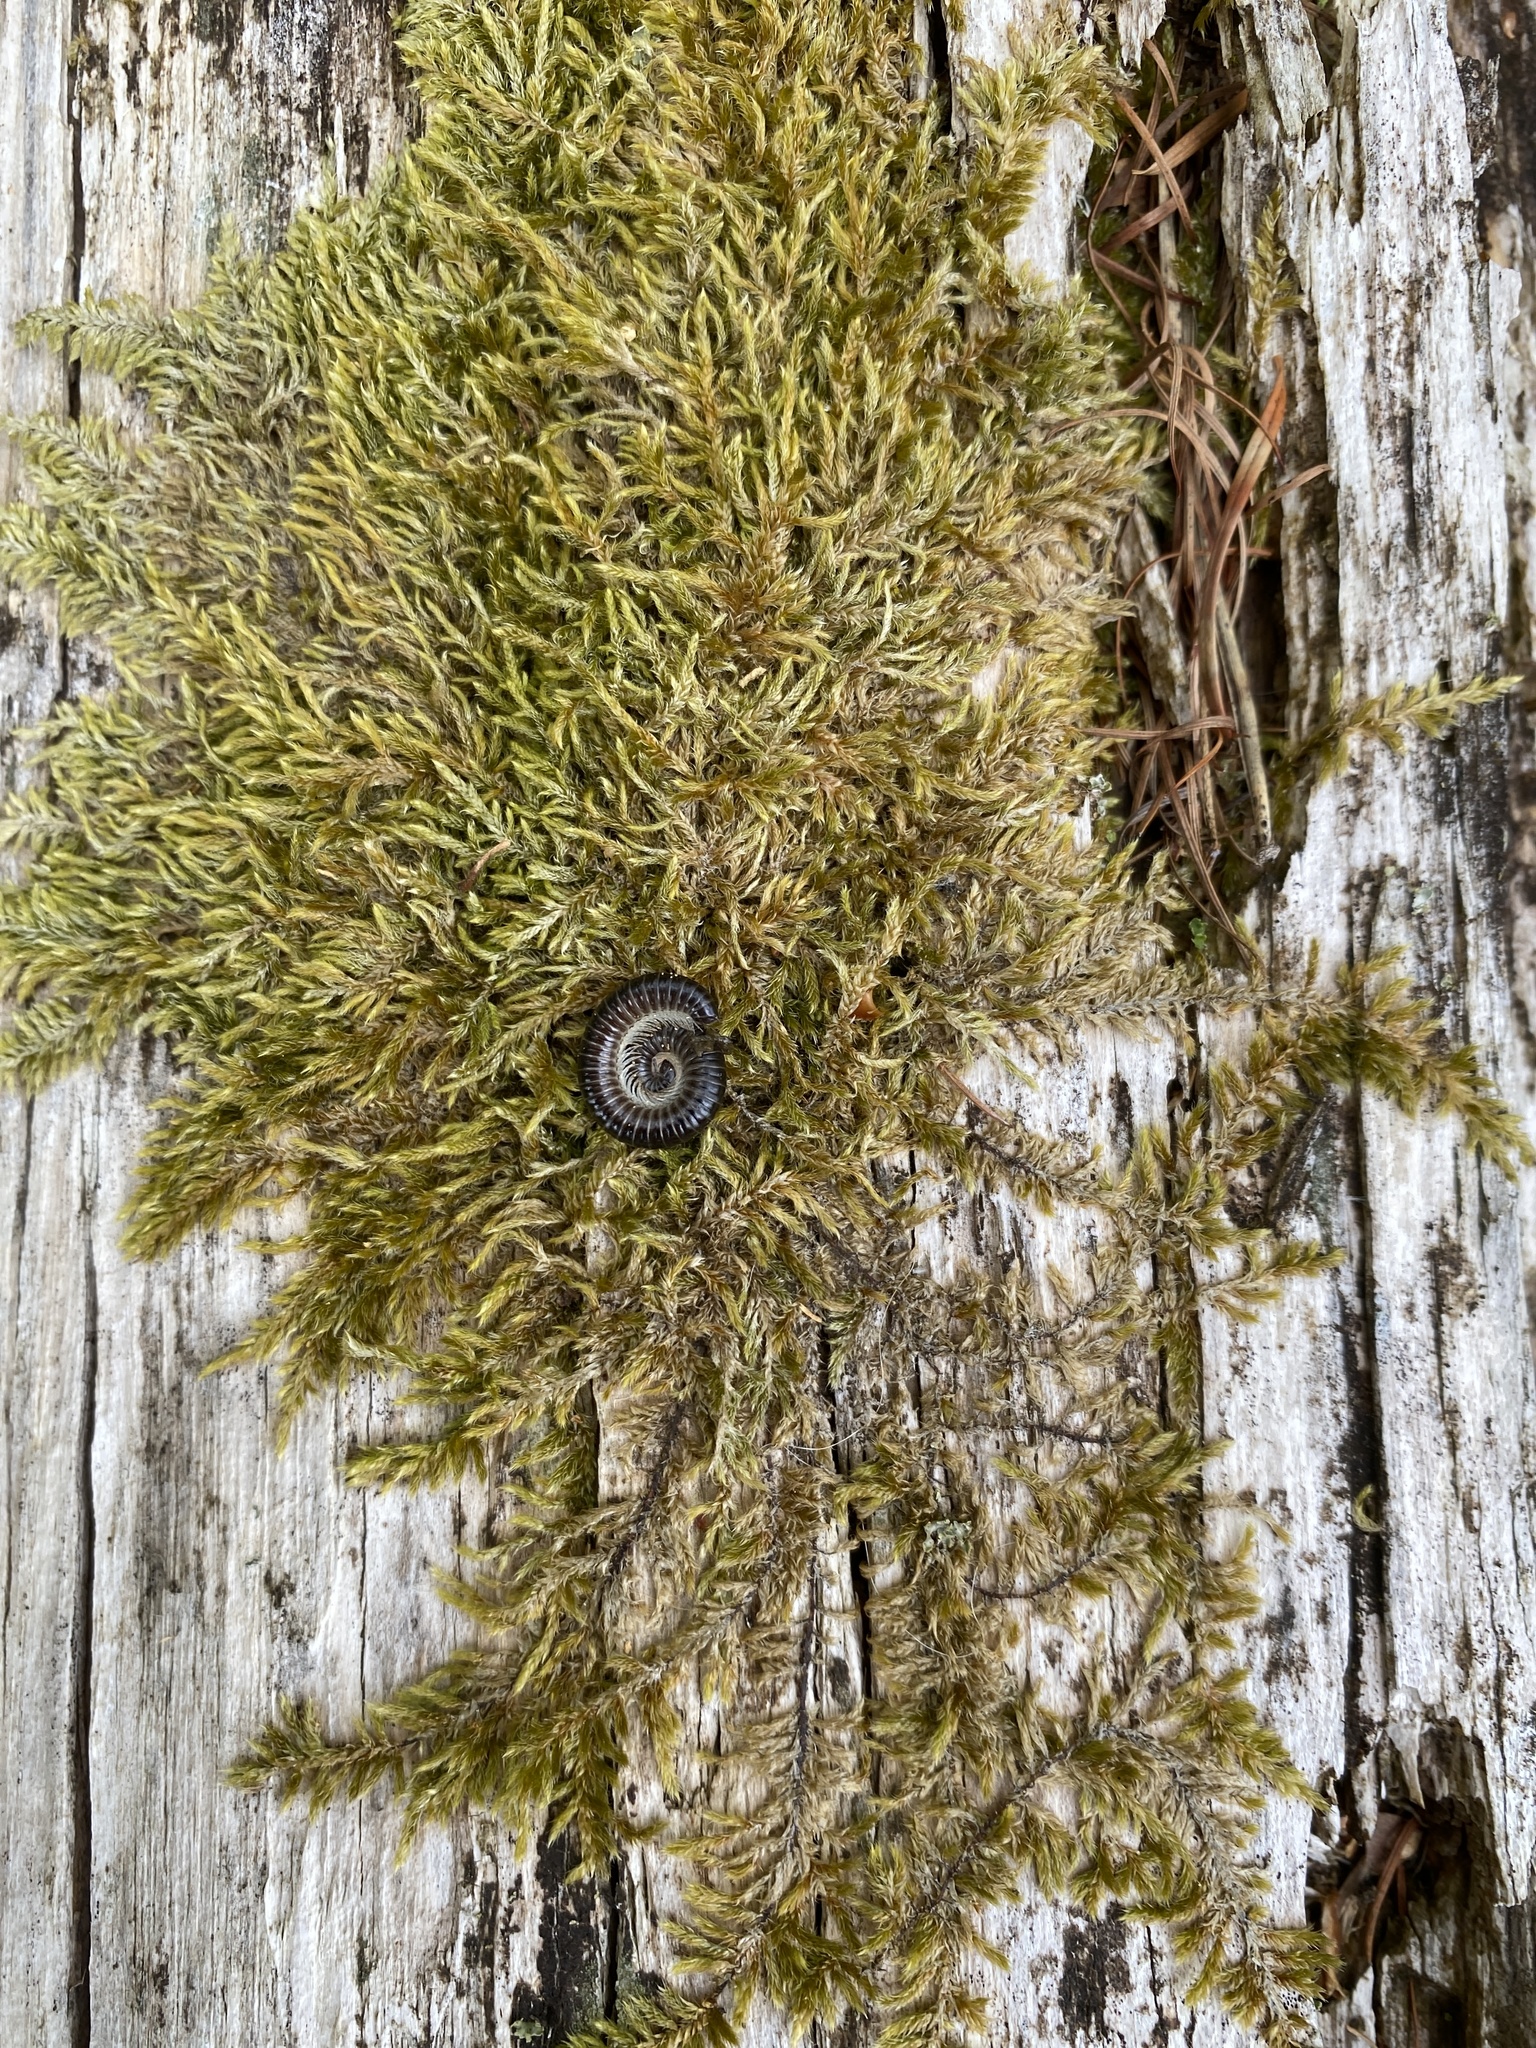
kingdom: Animalia
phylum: Arthropoda
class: Diplopoda
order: Julida
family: Julidae
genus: Tachypodoiulus
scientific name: Tachypodoiulus niger
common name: White-legged snake millipede
